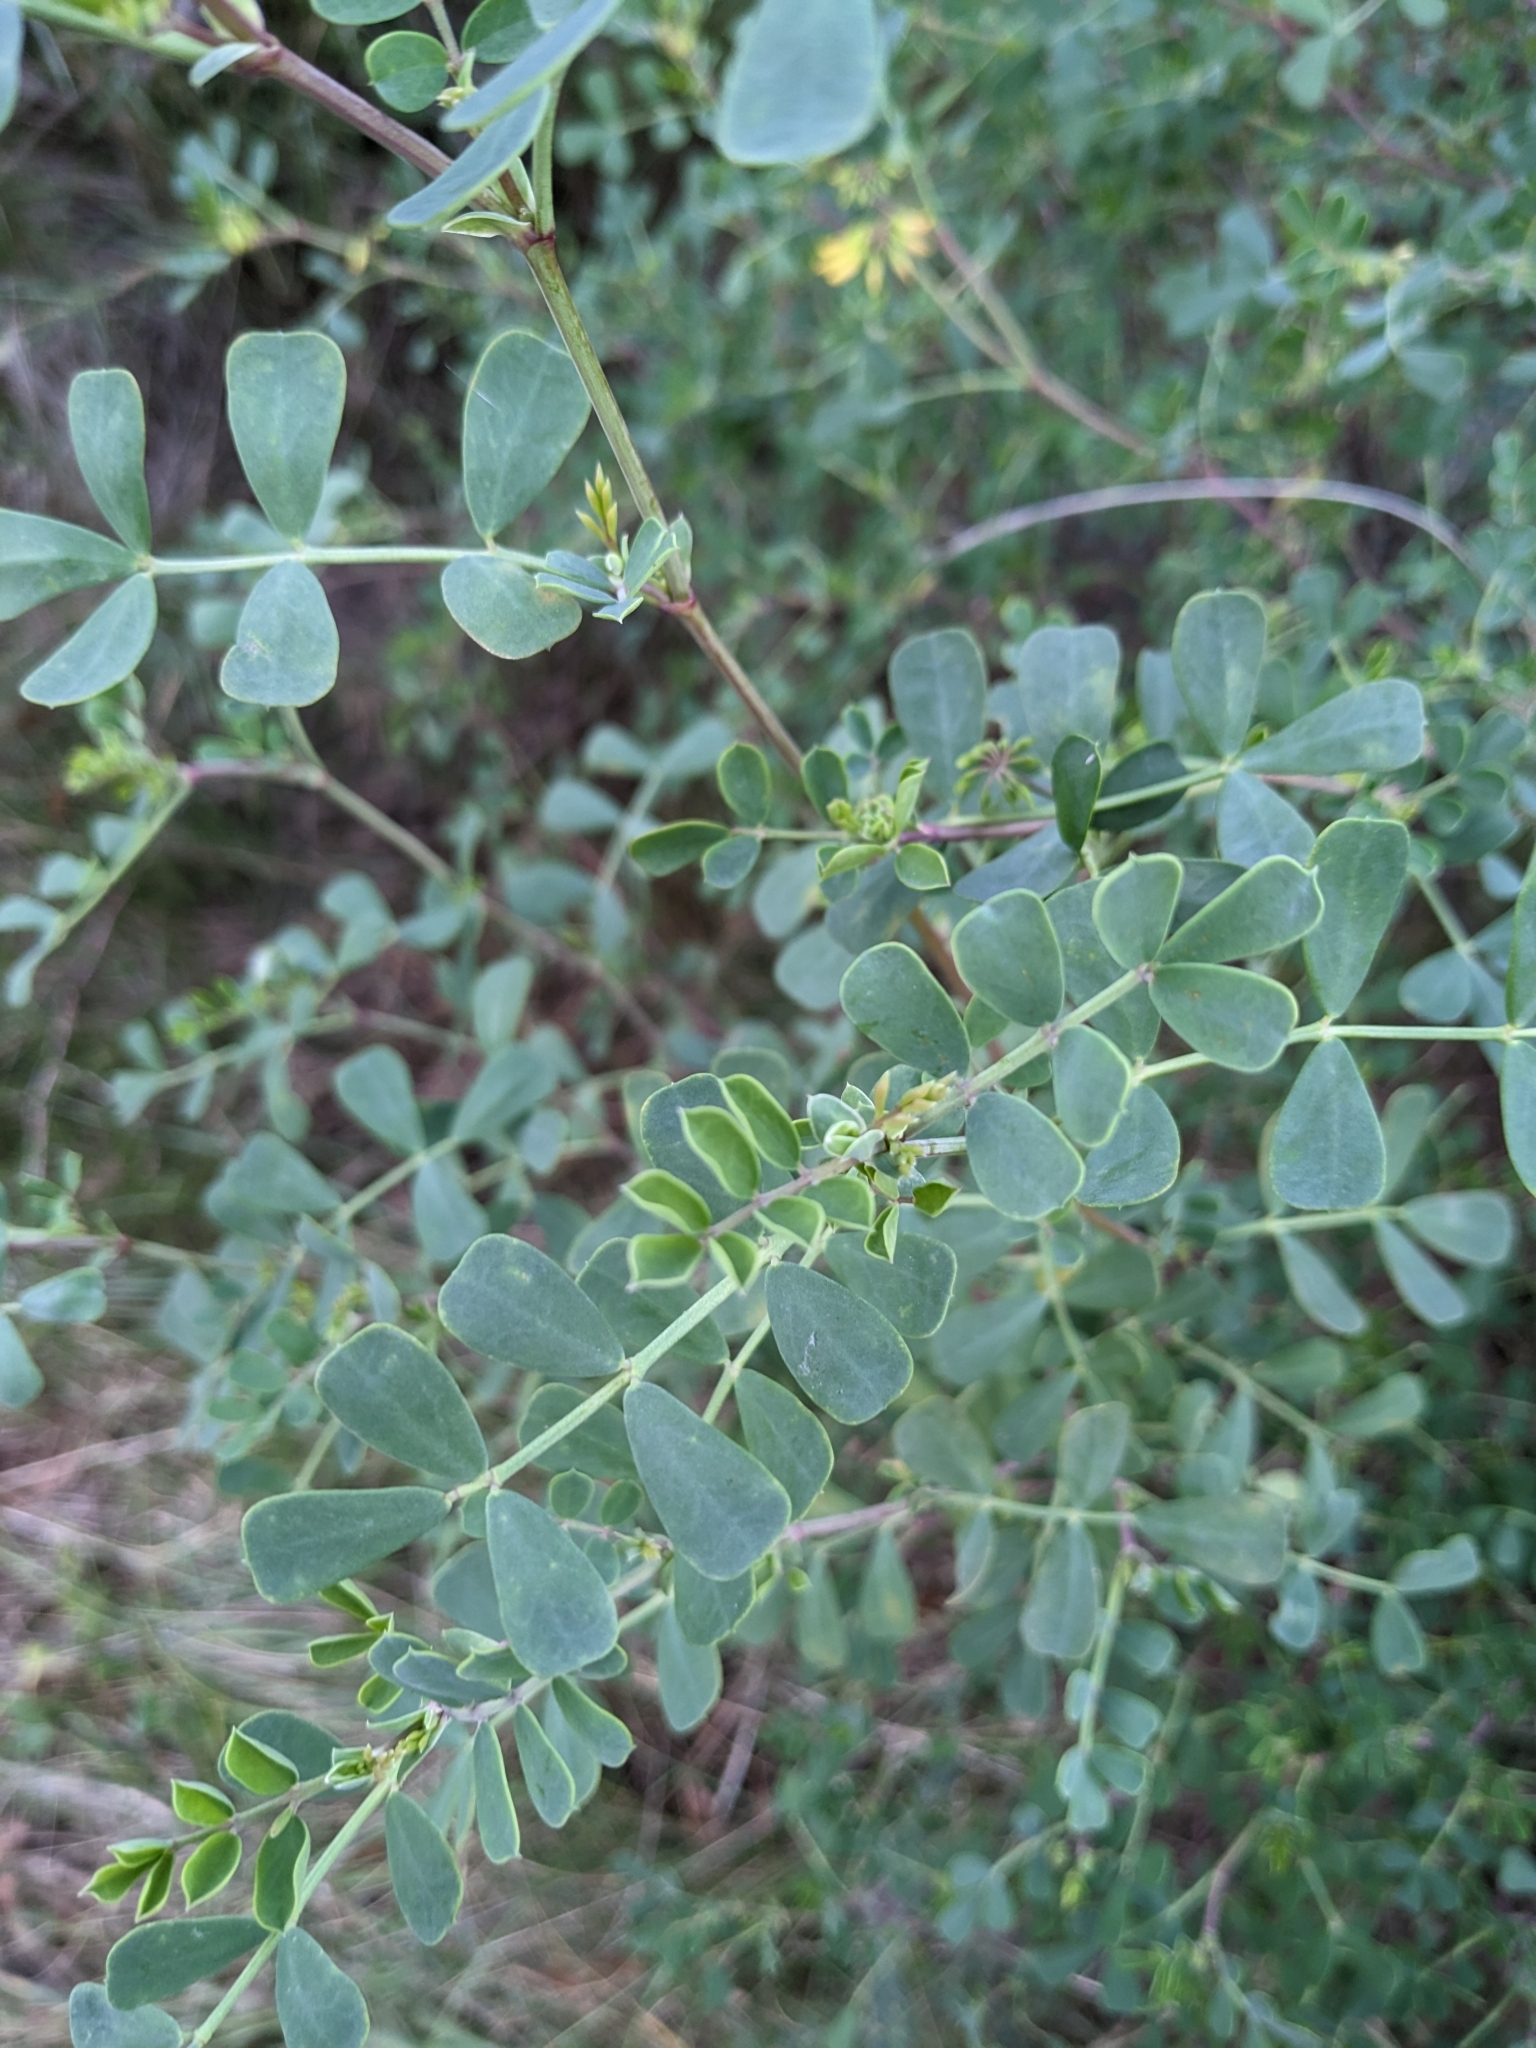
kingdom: Plantae
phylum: Tracheophyta
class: Magnoliopsida
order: Fabales
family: Fabaceae
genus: Coronilla
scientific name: Coronilla valentina
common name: Shrubby scorpion-vetch
